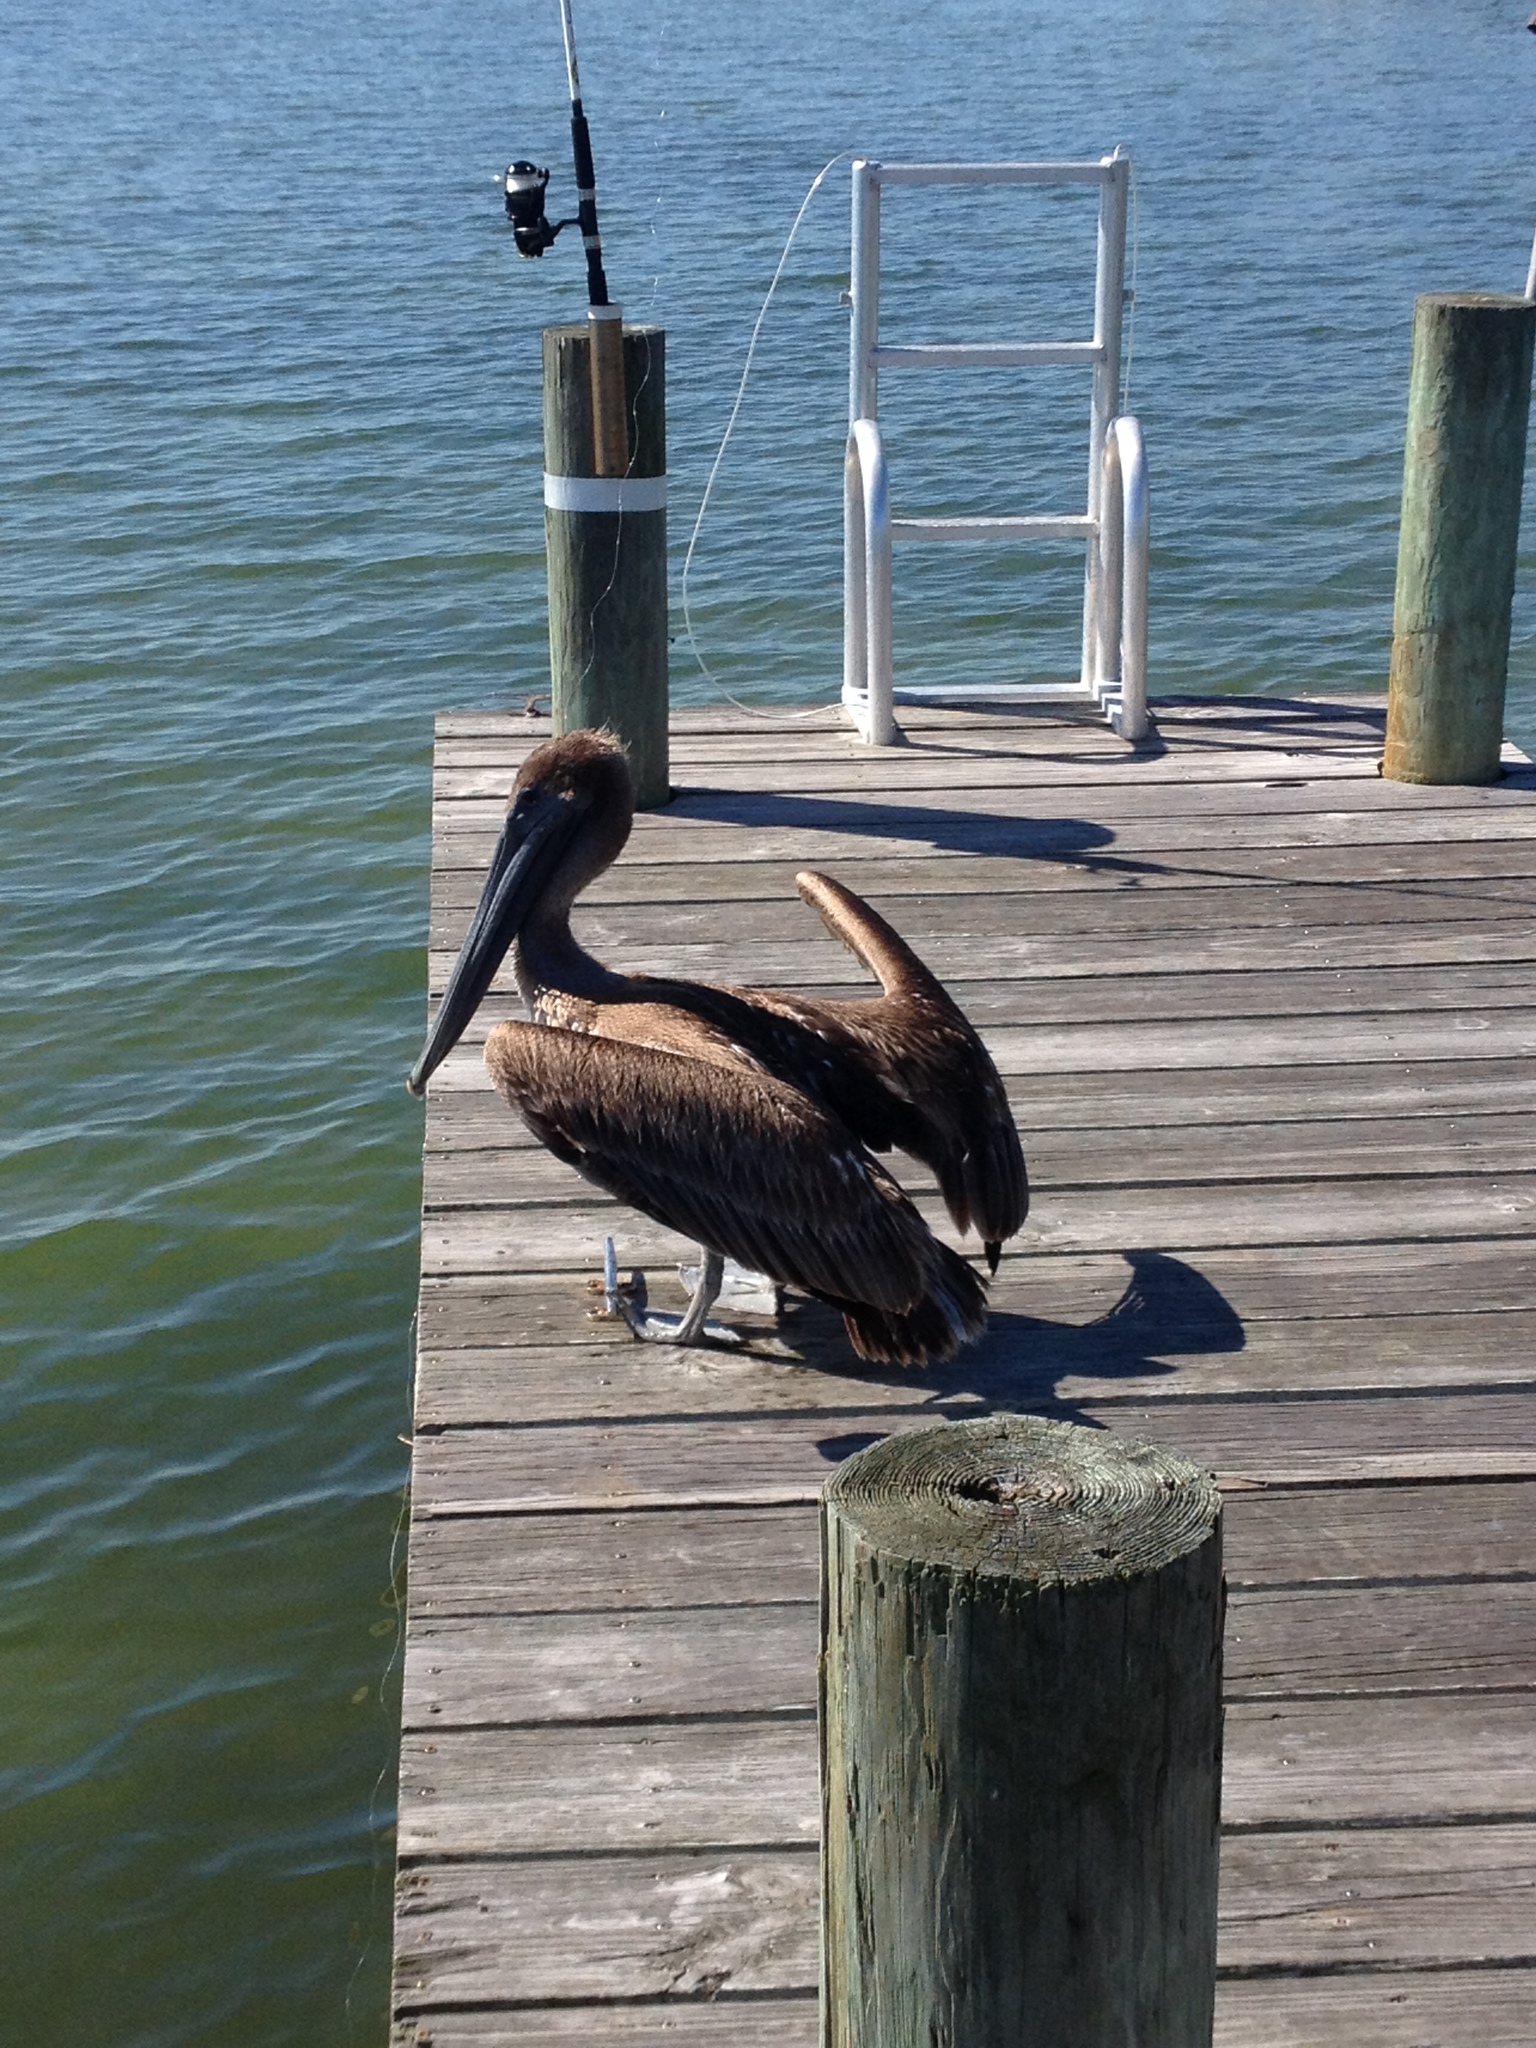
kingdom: Animalia
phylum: Chordata
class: Aves
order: Pelecaniformes
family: Pelecanidae
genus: Pelecanus
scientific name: Pelecanus occidentalis
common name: Brown pelican
